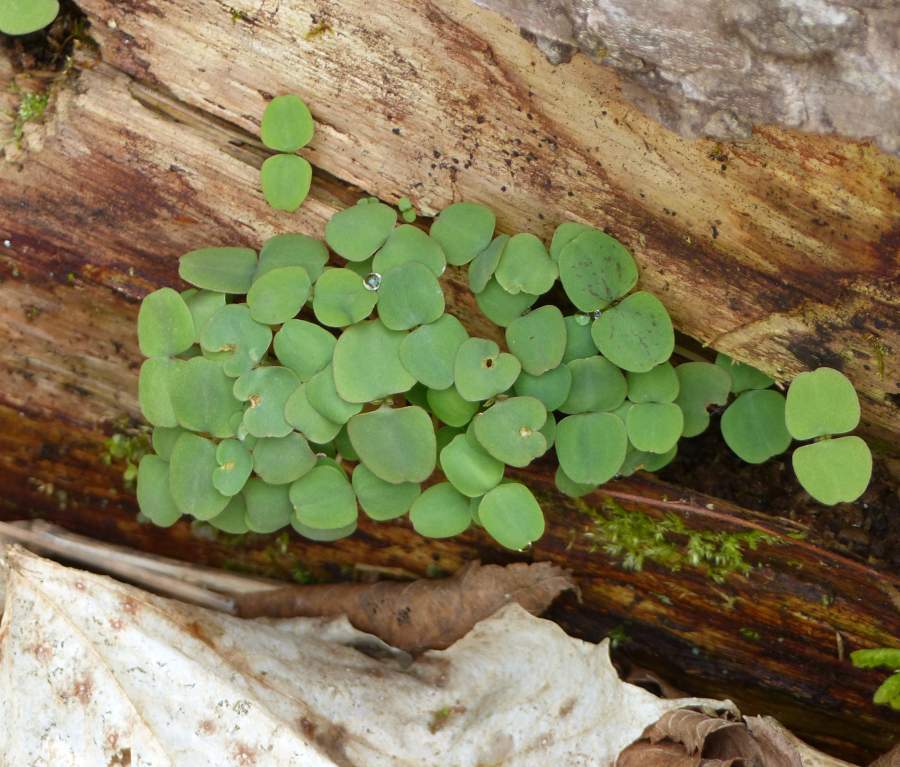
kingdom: Plantae
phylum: Tracheophyta
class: Magnoliopsida
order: Ericales
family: Balsaminaceae
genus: Impatiens
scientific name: Impatiens capensis
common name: Orange balsam
